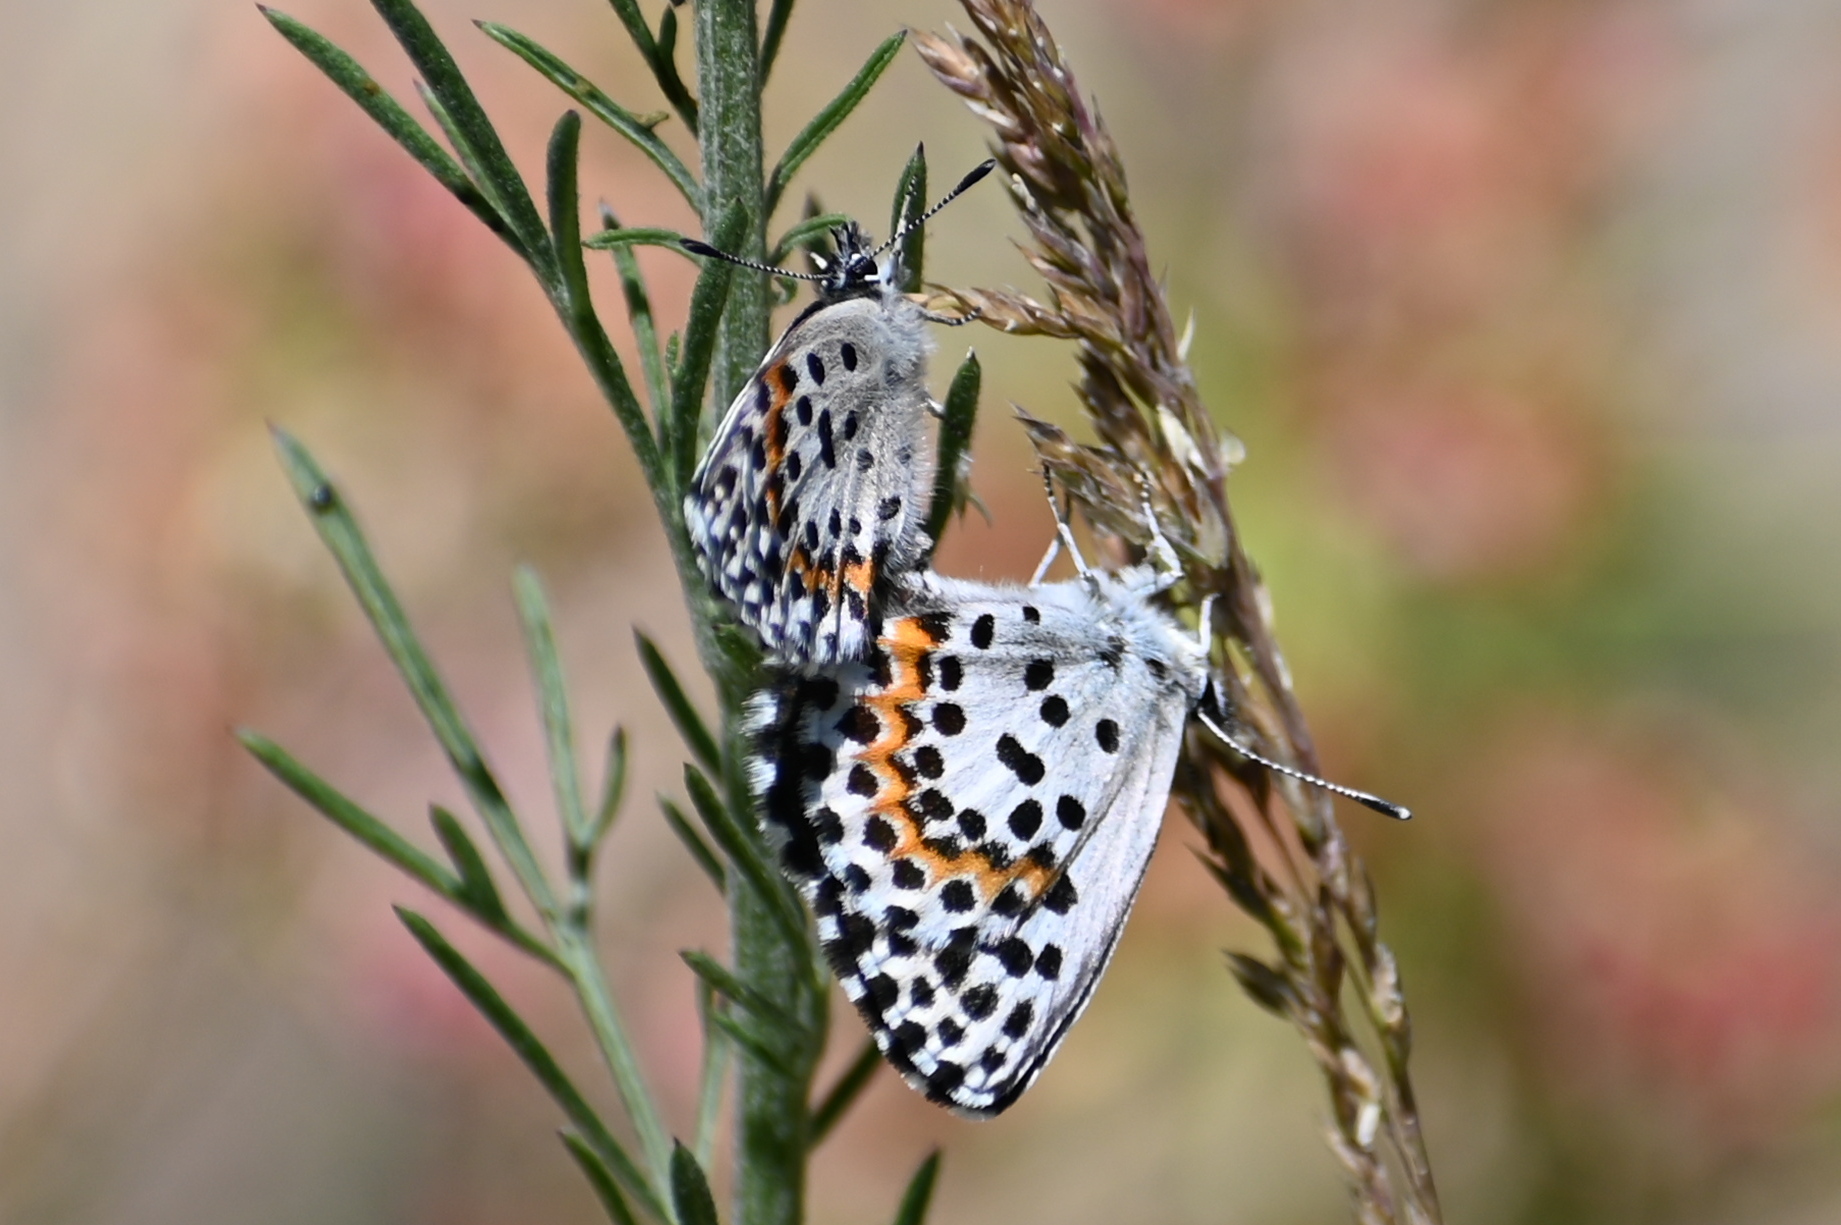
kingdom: Animalia
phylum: Arthropoda
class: Insecta
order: Lepidoptera
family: Lycaenidae
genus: Scolitantides
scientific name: Scolitantides orion
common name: Chequered blue
